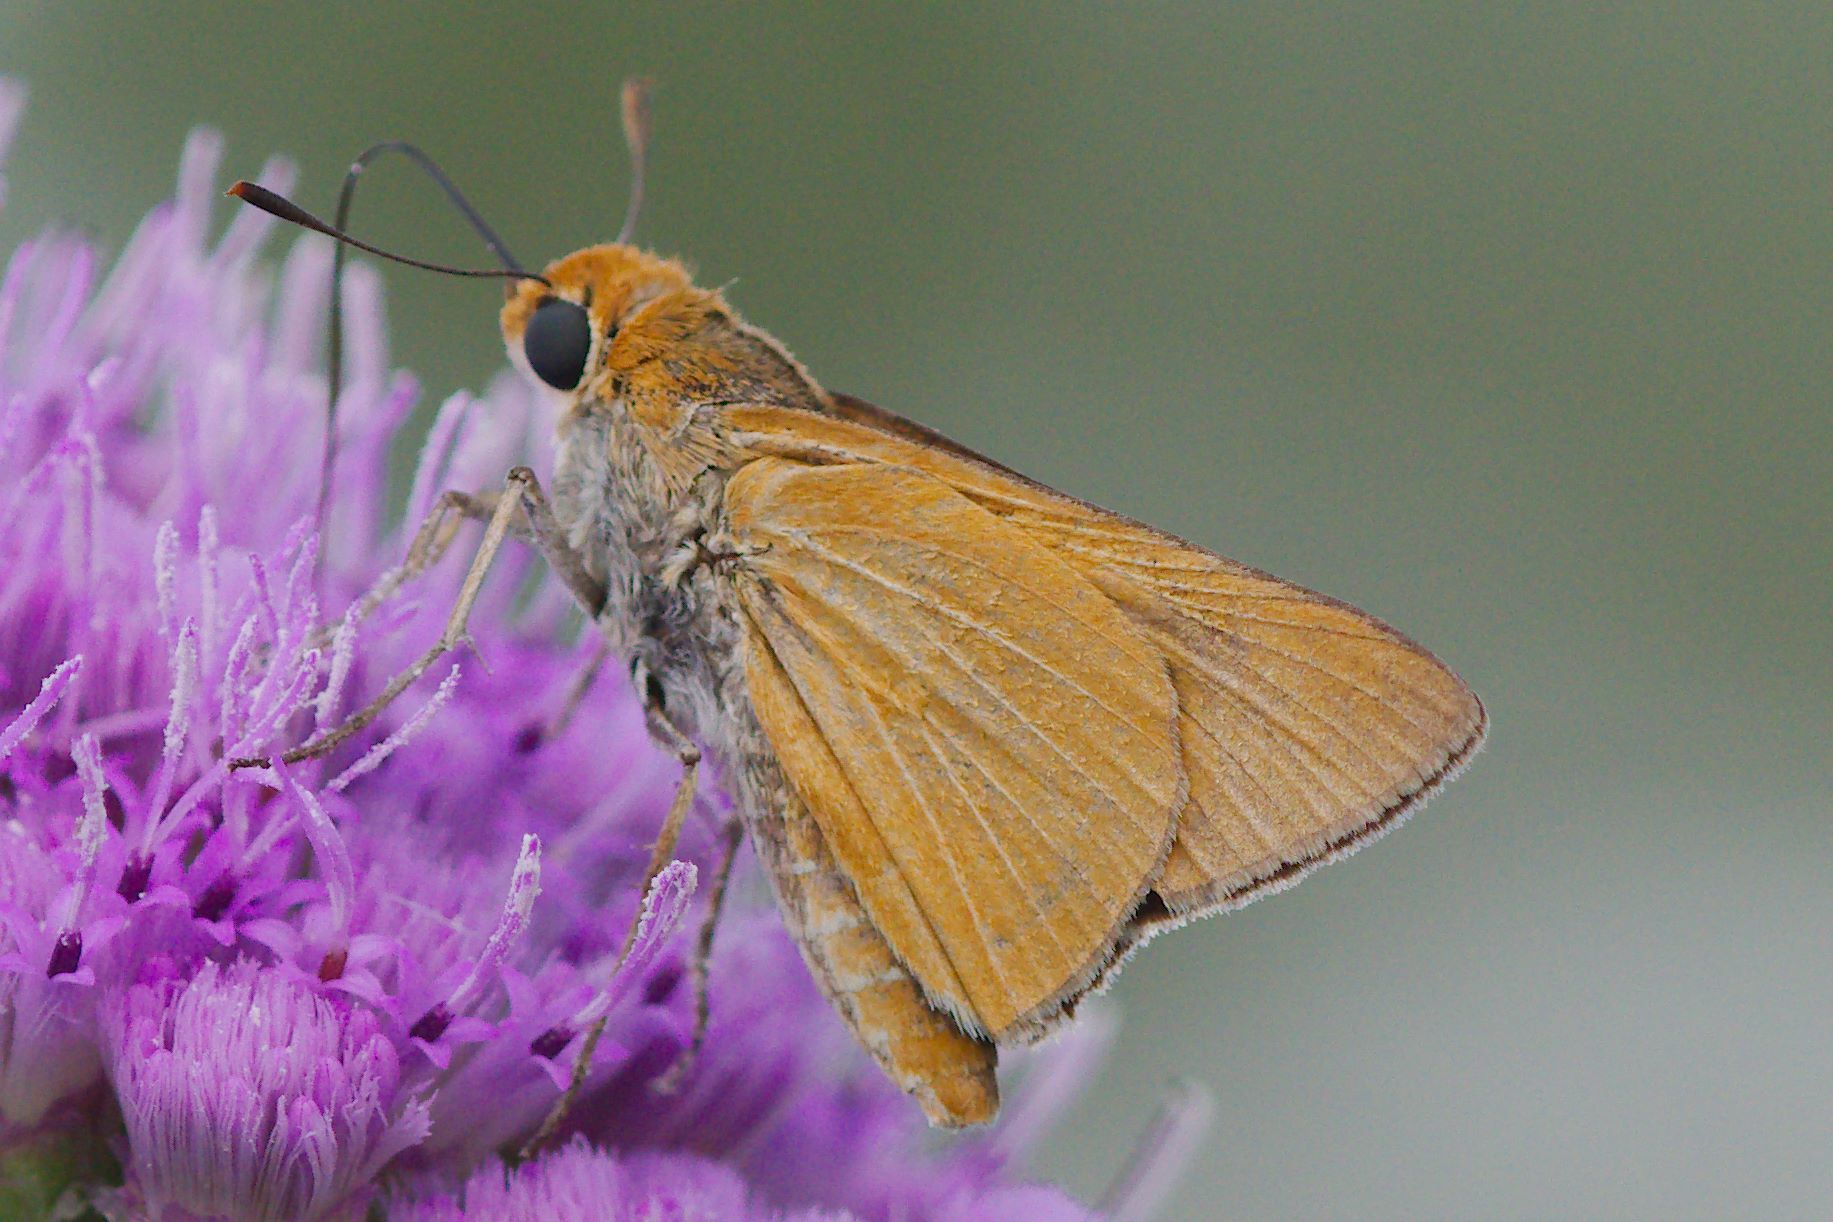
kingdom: Animalia
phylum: Arthropoda
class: Insecta
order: Lepidoptera
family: Hesperiidae
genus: Euphyes
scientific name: Euphyes arpa
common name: Palmetto skipper
